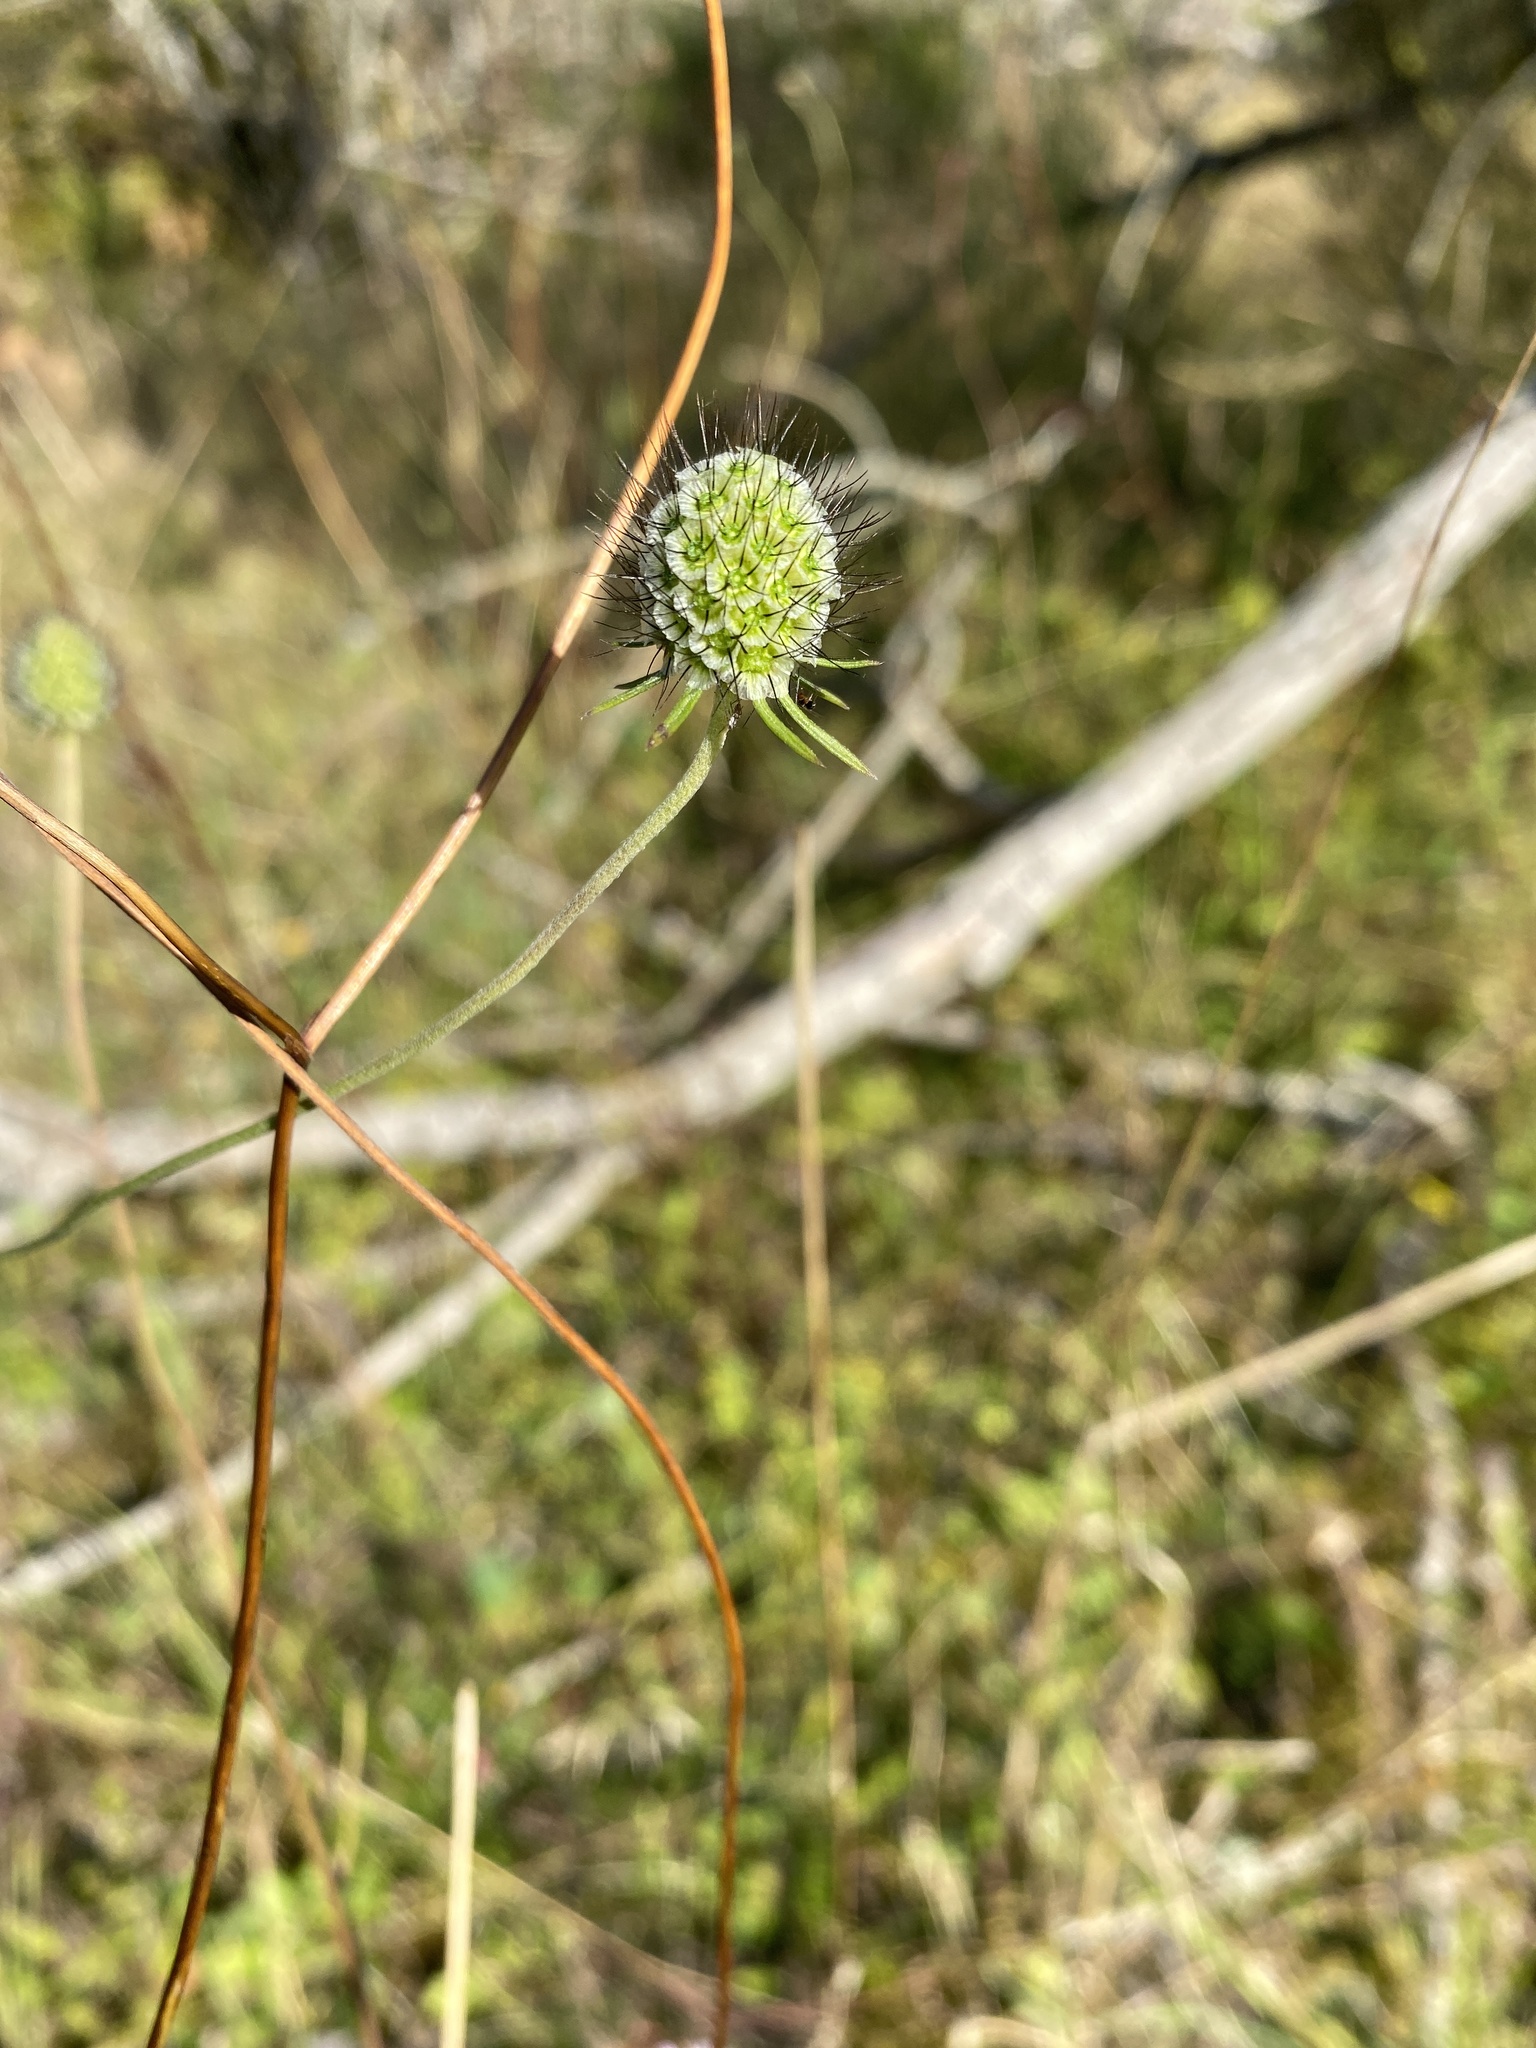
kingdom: Plantae
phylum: Tracheophyta
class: Magnoliopsida
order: Dipsacales
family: Caprifoliaceae
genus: Scabiosa
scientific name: Scabiosa columbaria
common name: Small scabious
